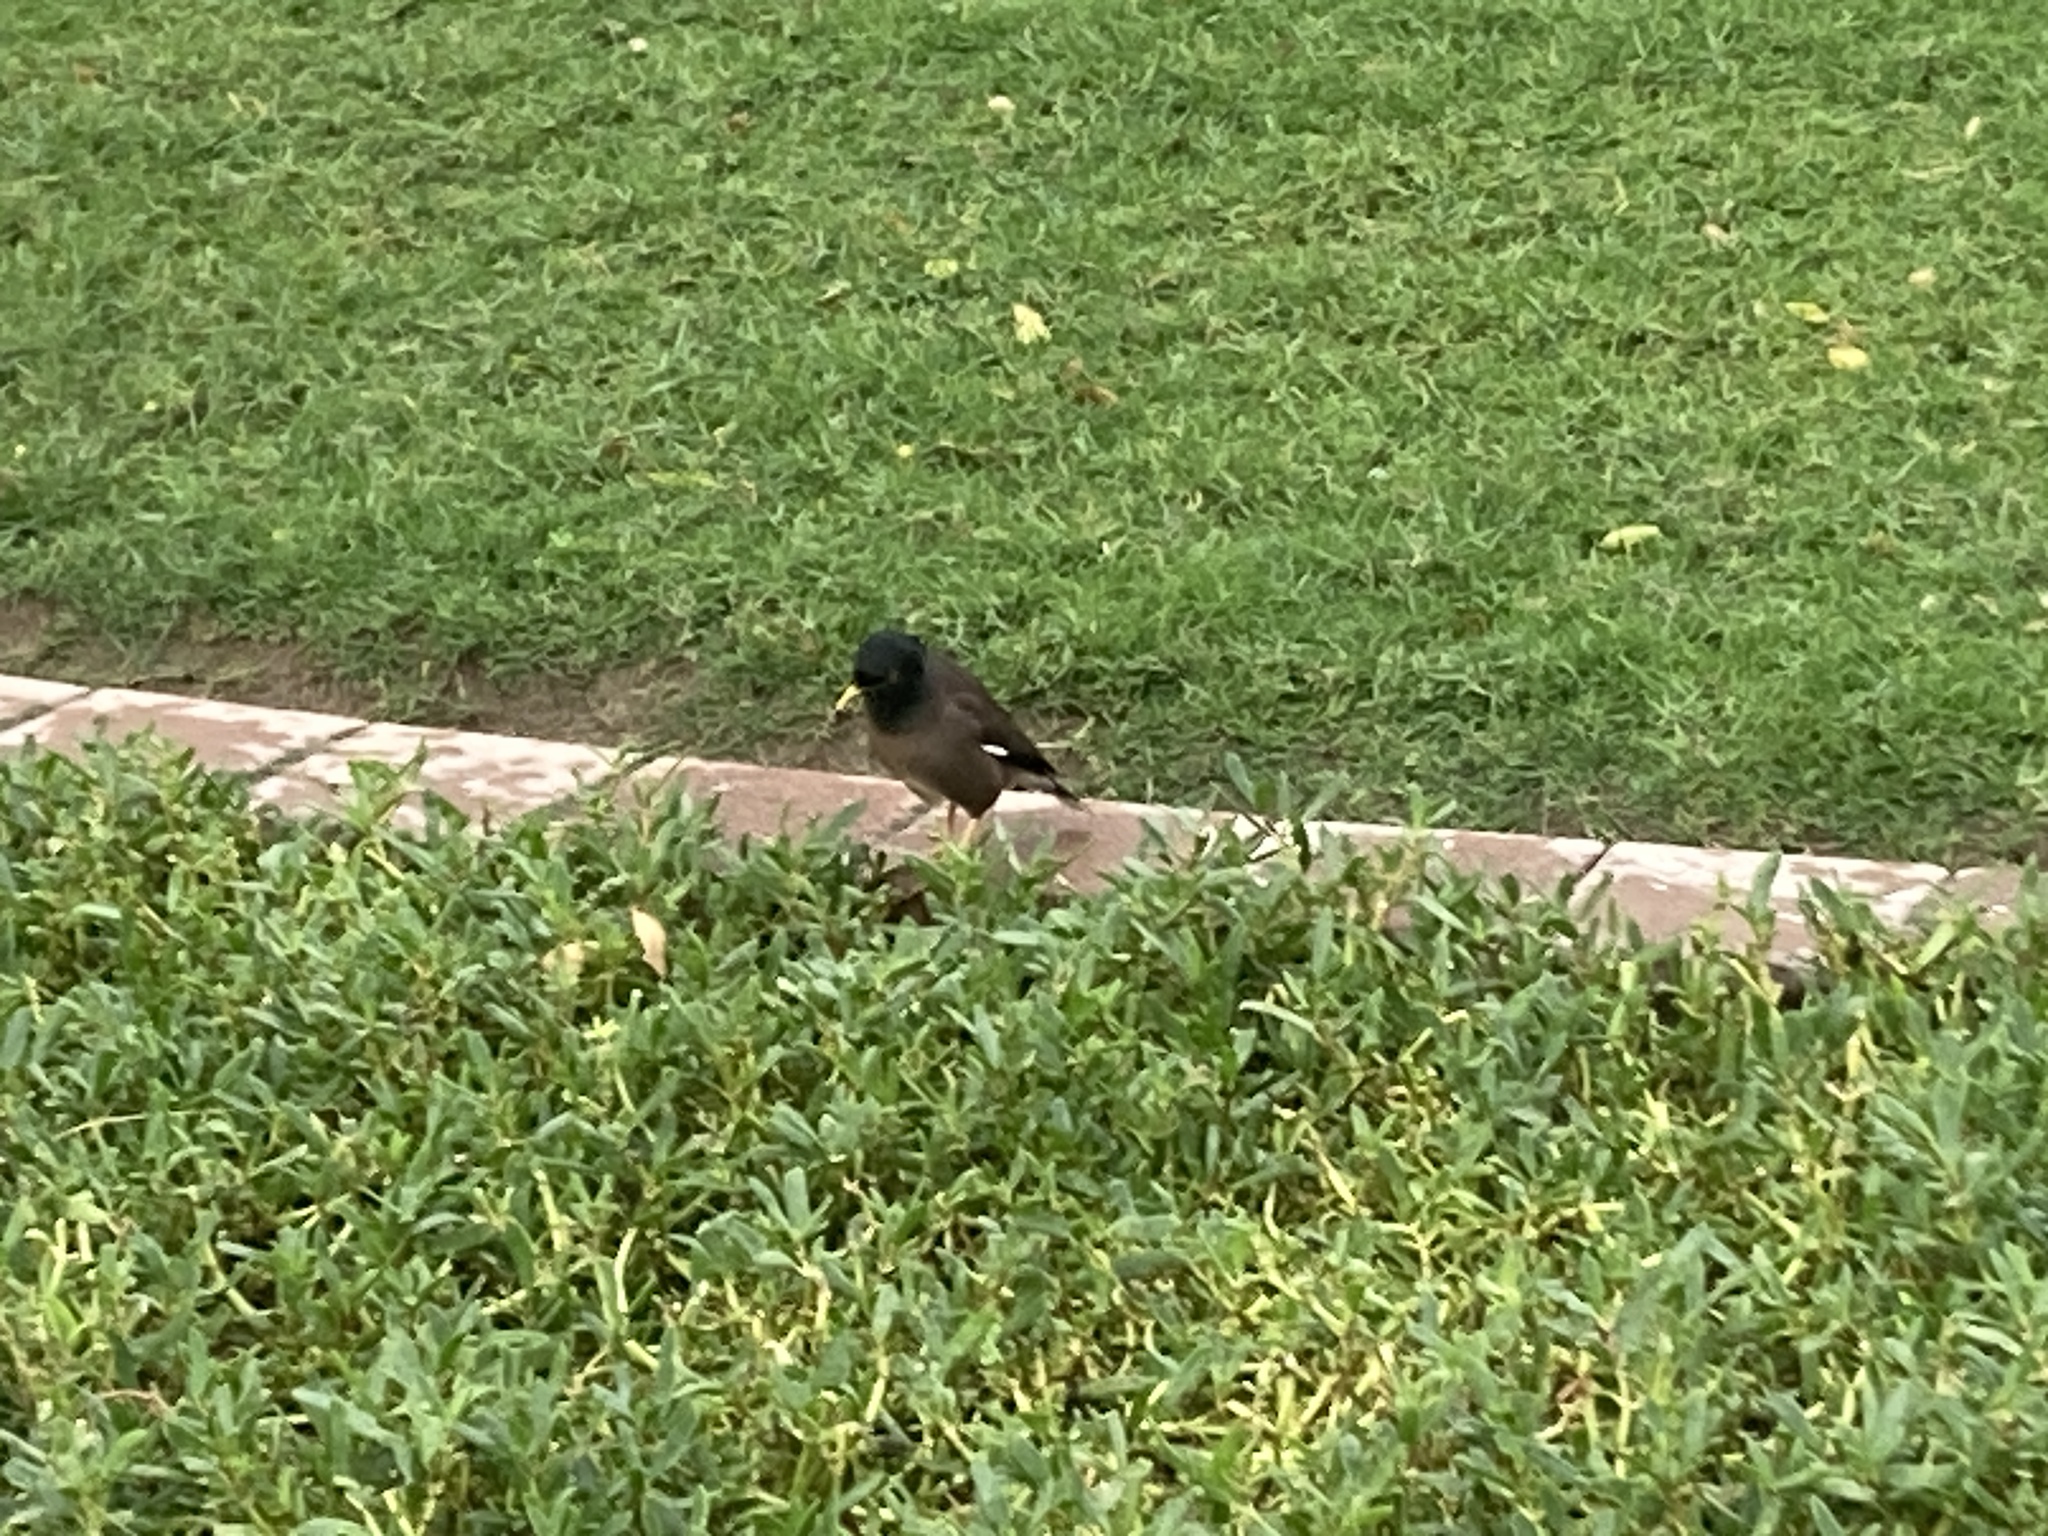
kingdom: Animalia
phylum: Chordata
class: Aves
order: Passeriformes
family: Sturnidae
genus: Acridotheres
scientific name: Acridotheres tristis
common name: Common myna
